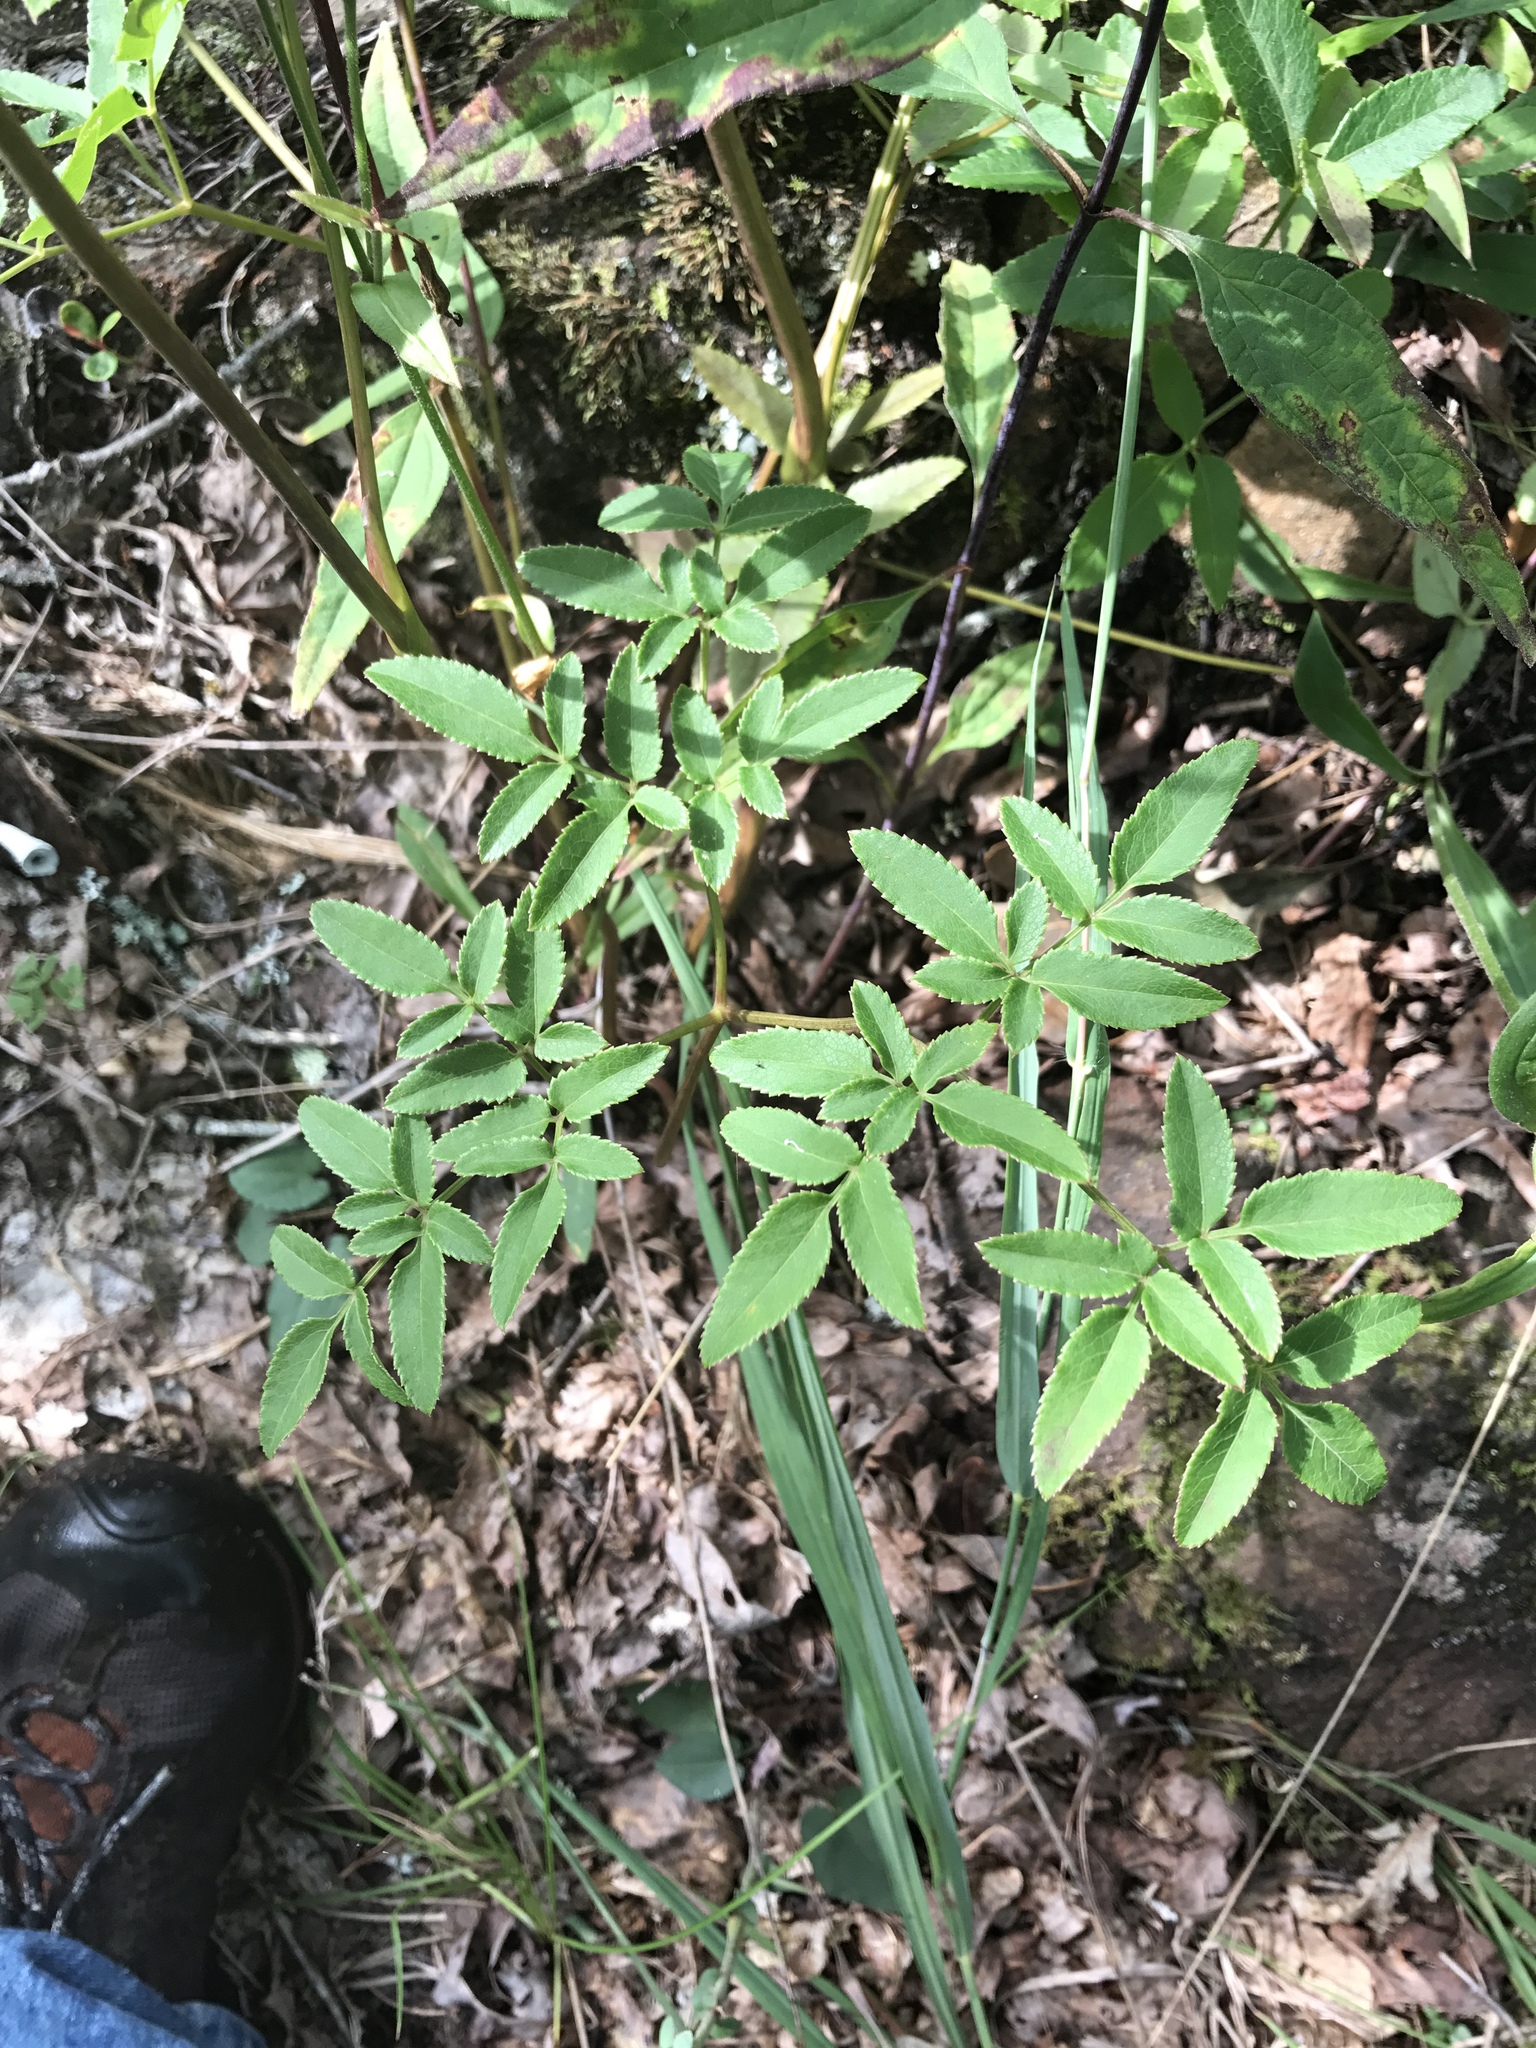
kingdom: Plantae
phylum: Tracheophyta
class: Magnoliopsida
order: Apiales
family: Apiaceae
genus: Angelica
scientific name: Angelica venenosa
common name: Hairy angelica
